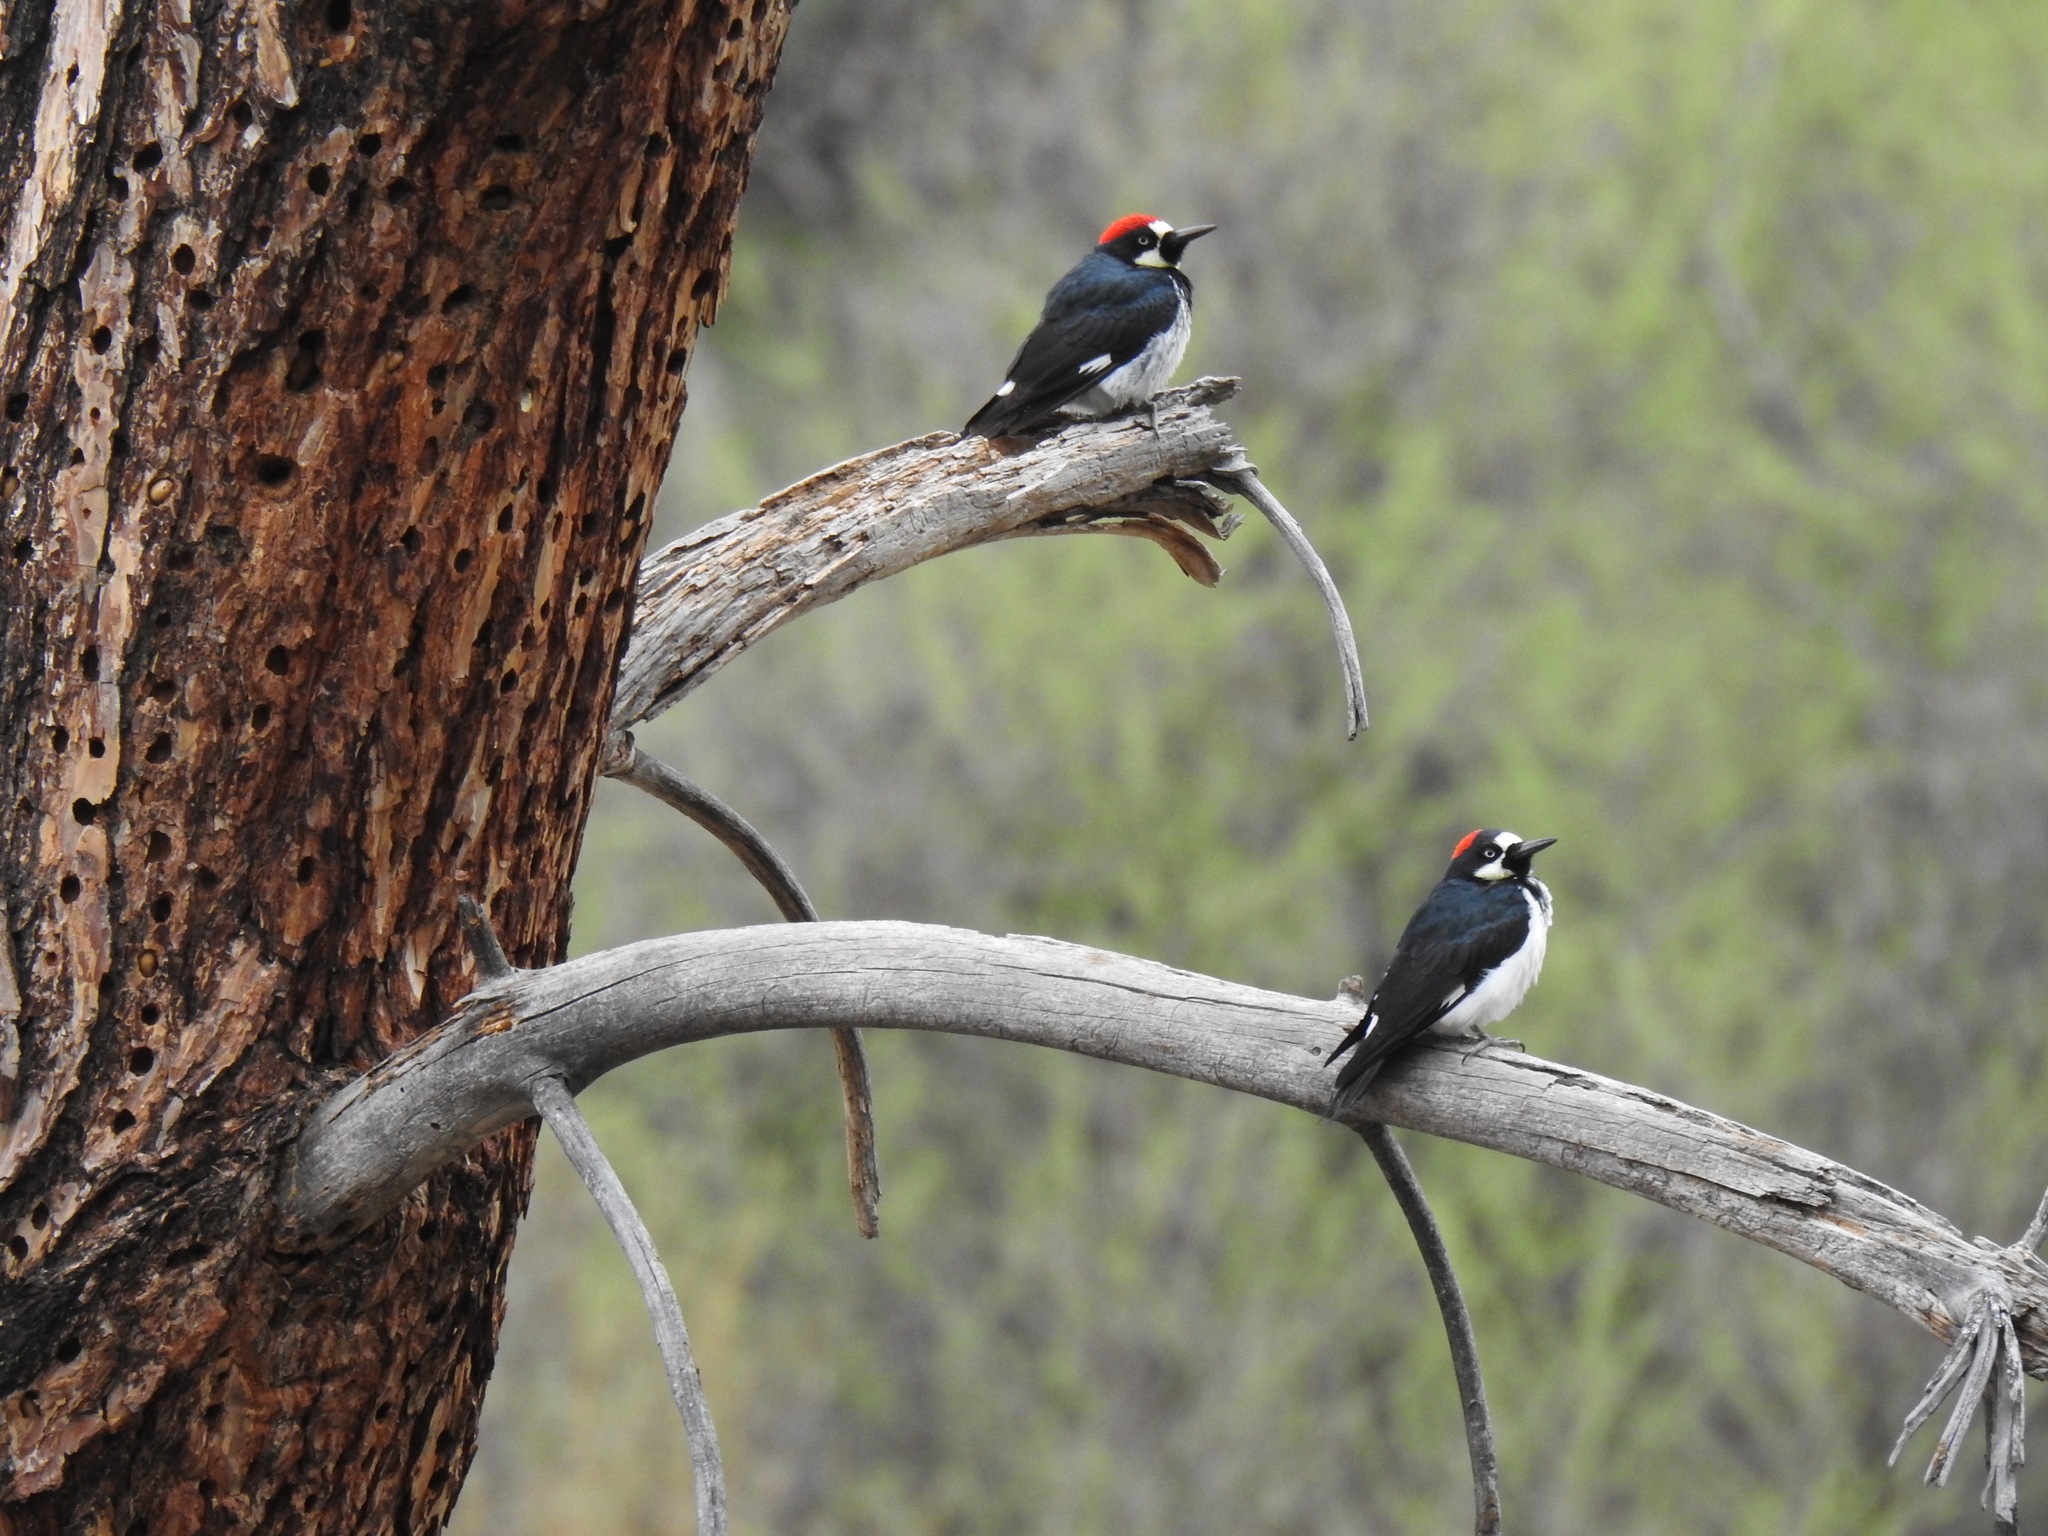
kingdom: Animalia
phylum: Chordata
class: Aves
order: Piciformes
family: Picidae
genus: Melanerpes
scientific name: Melanerpes formicivorus
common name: Acorn woodpecker
